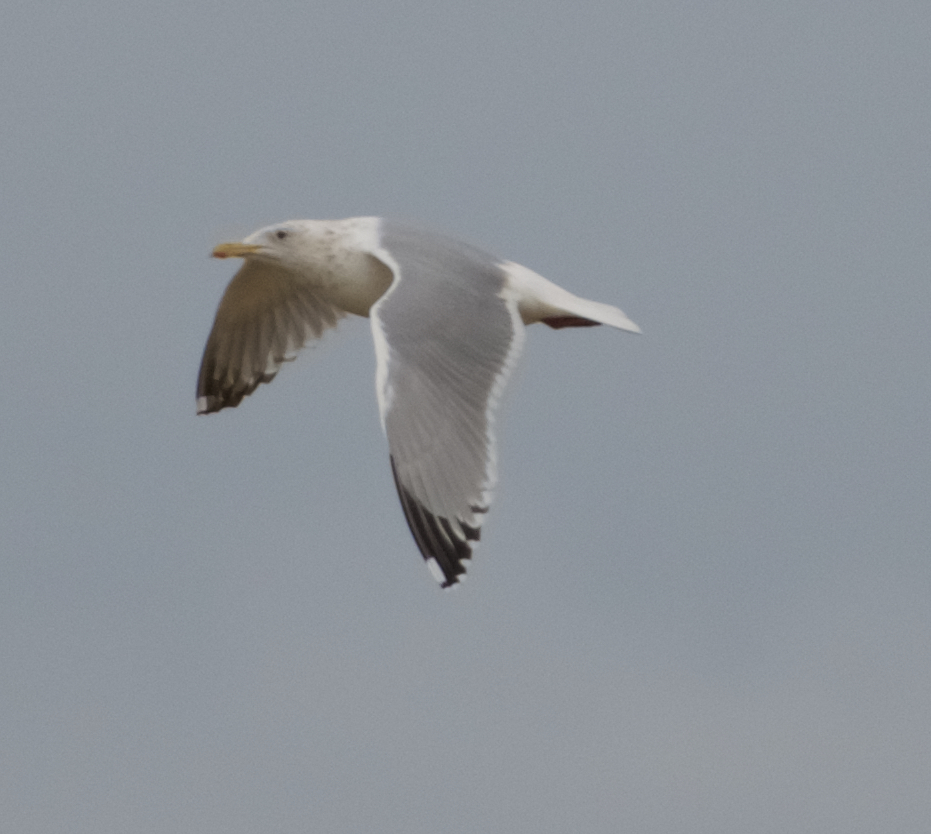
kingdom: Animalia
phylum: Chordata
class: Aves
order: Charadriiformes
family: Laridae
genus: Larus
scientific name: Larus argentatus
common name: Herring gull
